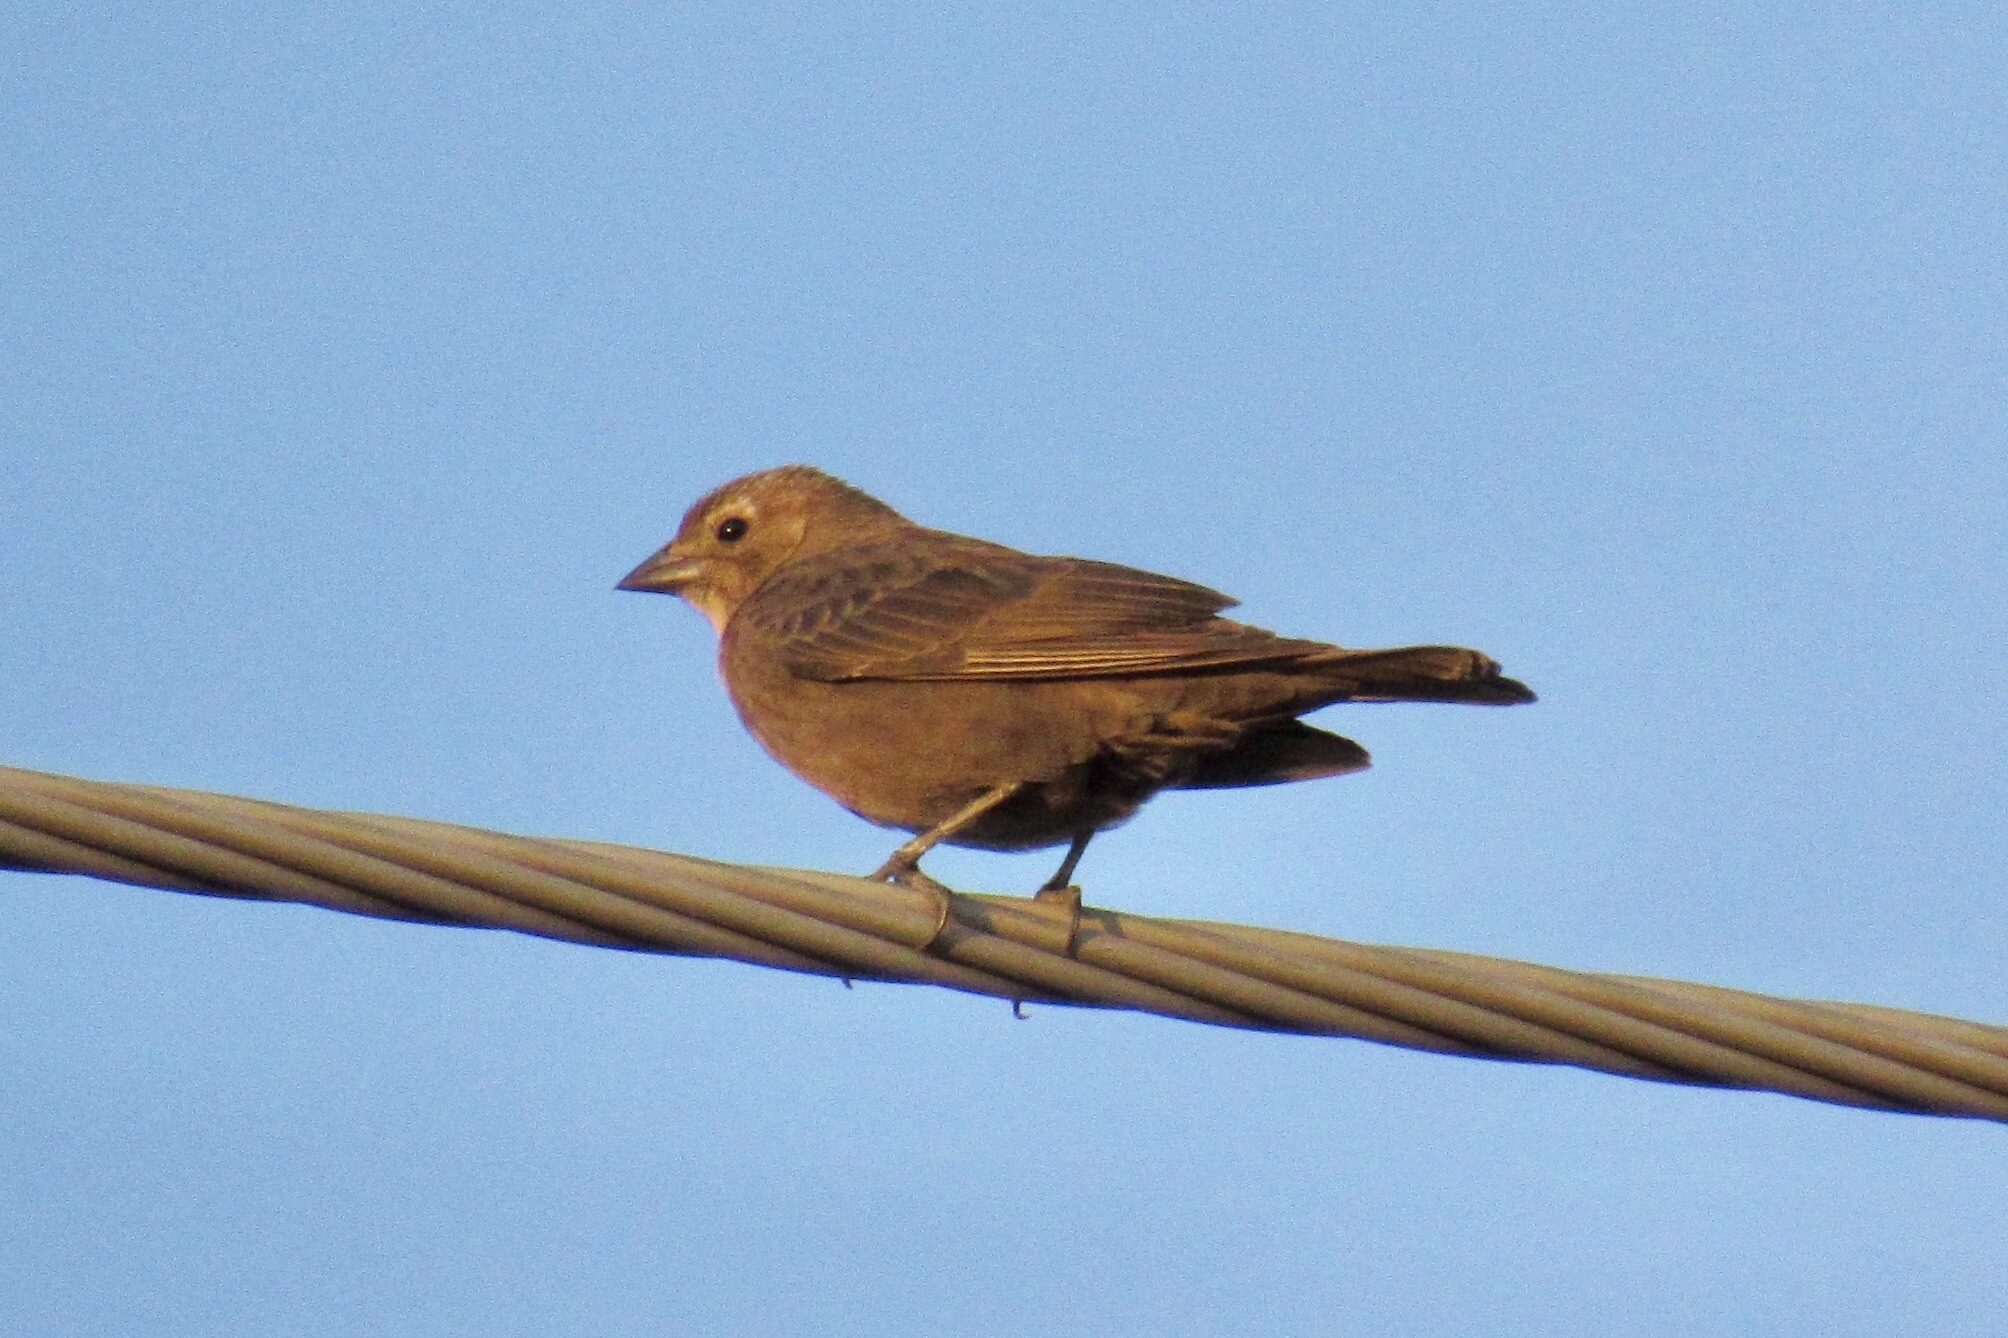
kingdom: Animalia
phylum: Chordata
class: Aves
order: Passeriformes
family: Icteridae
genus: Molothrus
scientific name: Molothrus ater
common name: Brown-headed cowbird
